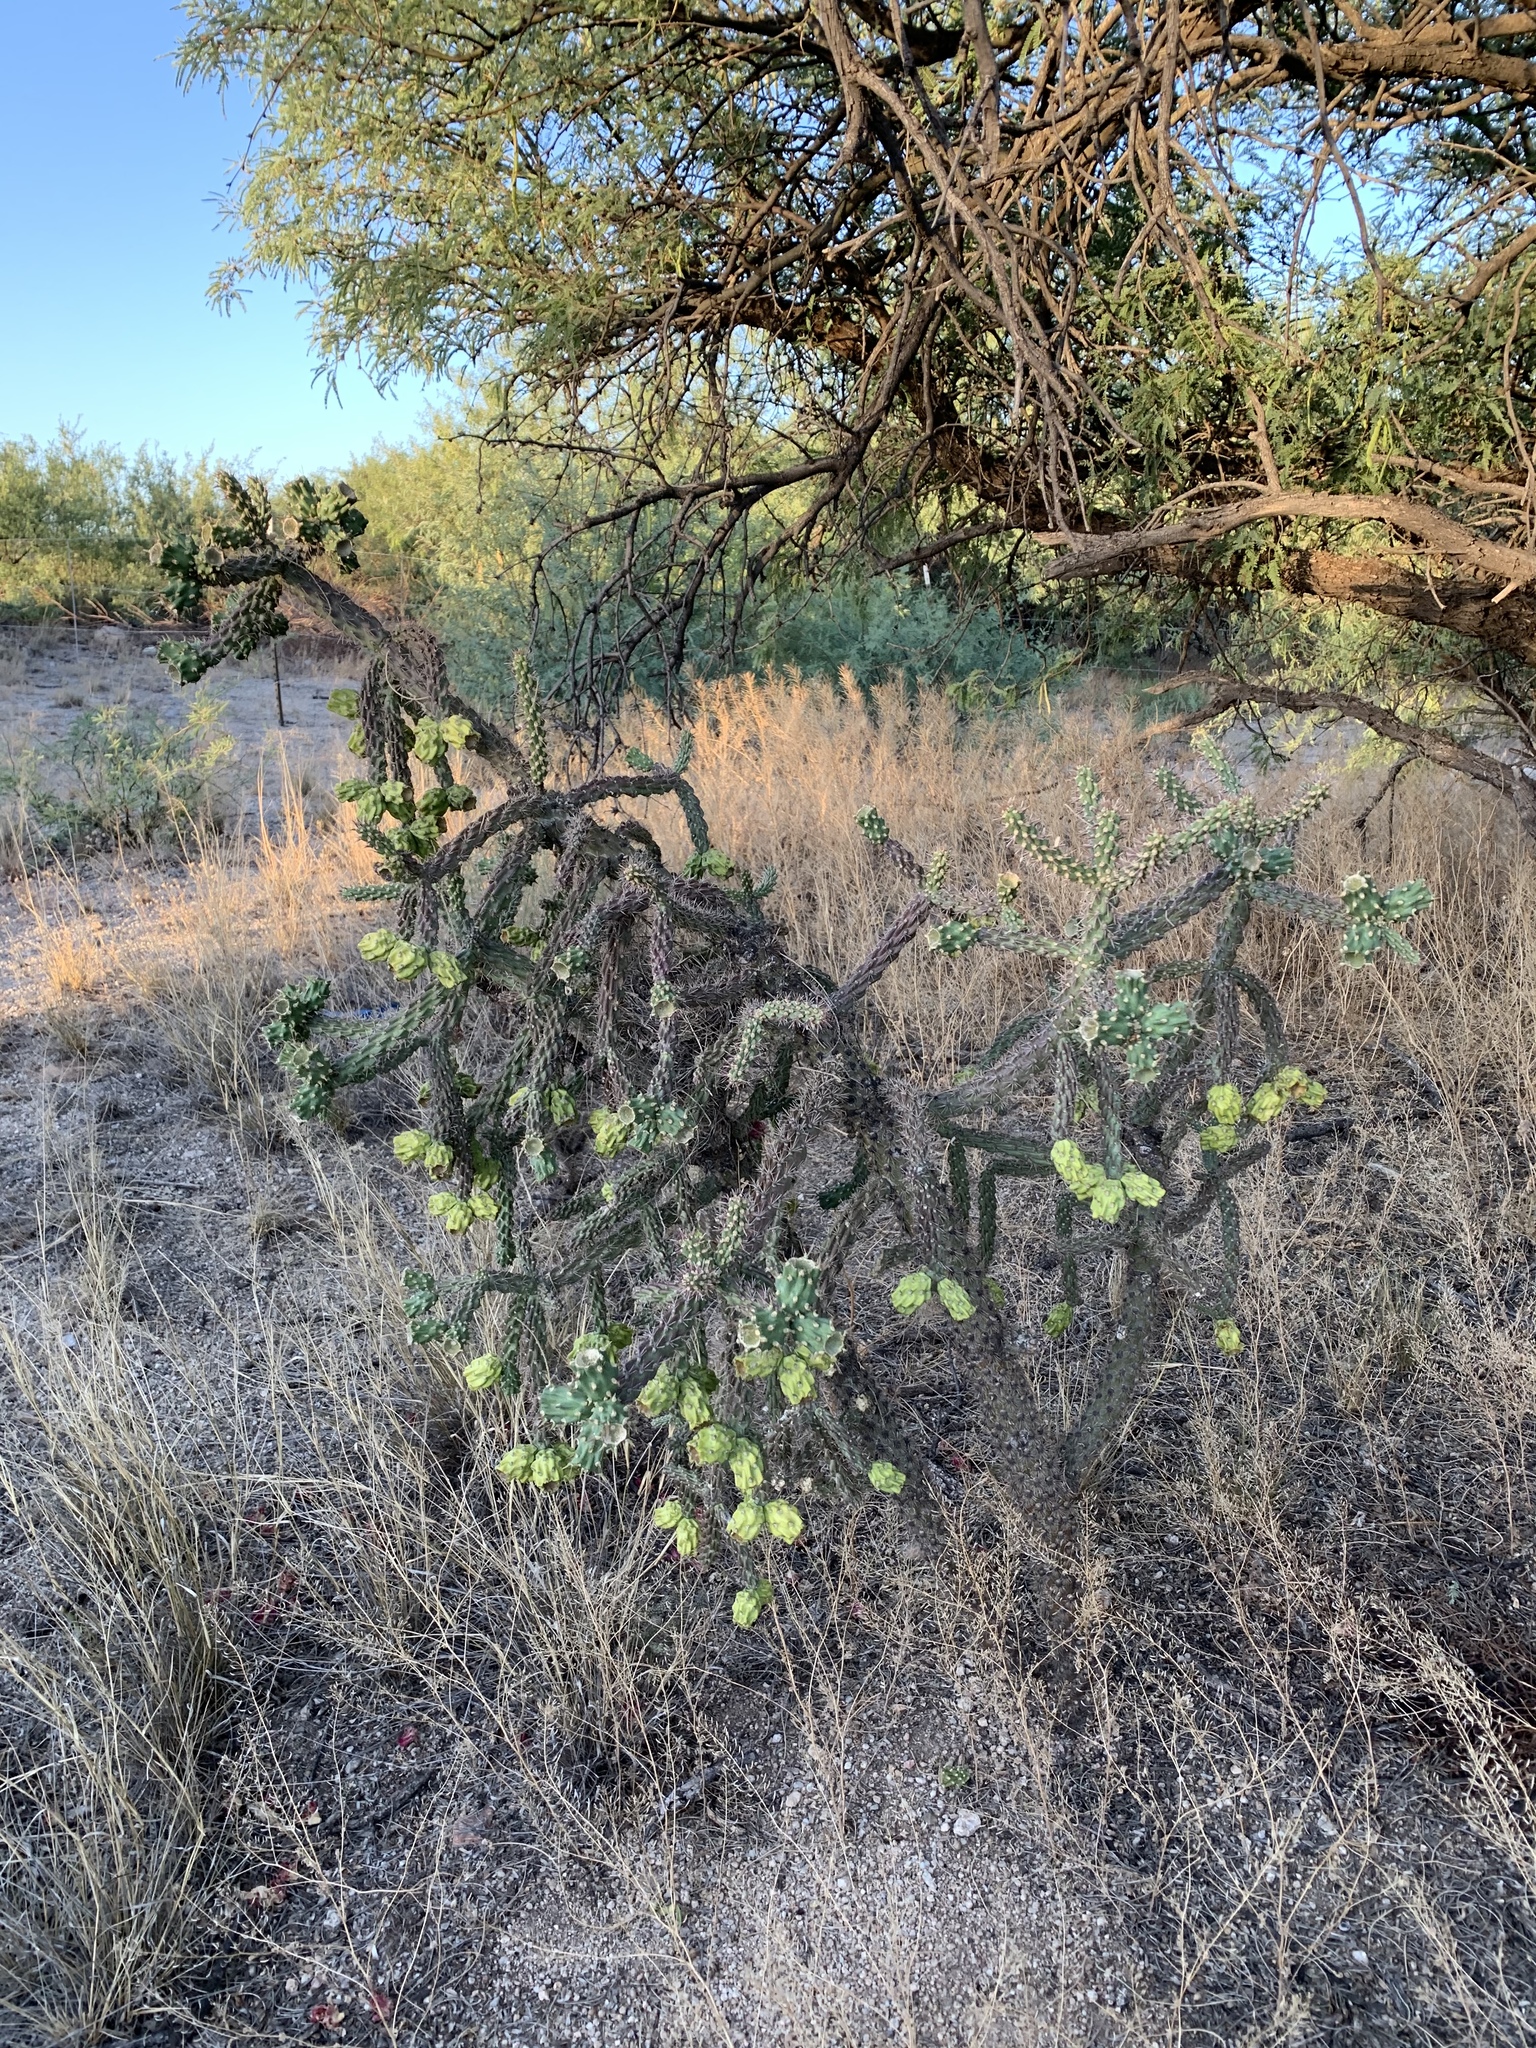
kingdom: Plantae
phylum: Tracheophyta
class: Magnoliopsida
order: Caryophyllales
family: Cactaceae
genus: Cylindropuntia
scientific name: Cylindropuntia imbricata
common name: Candelabrum cactus
